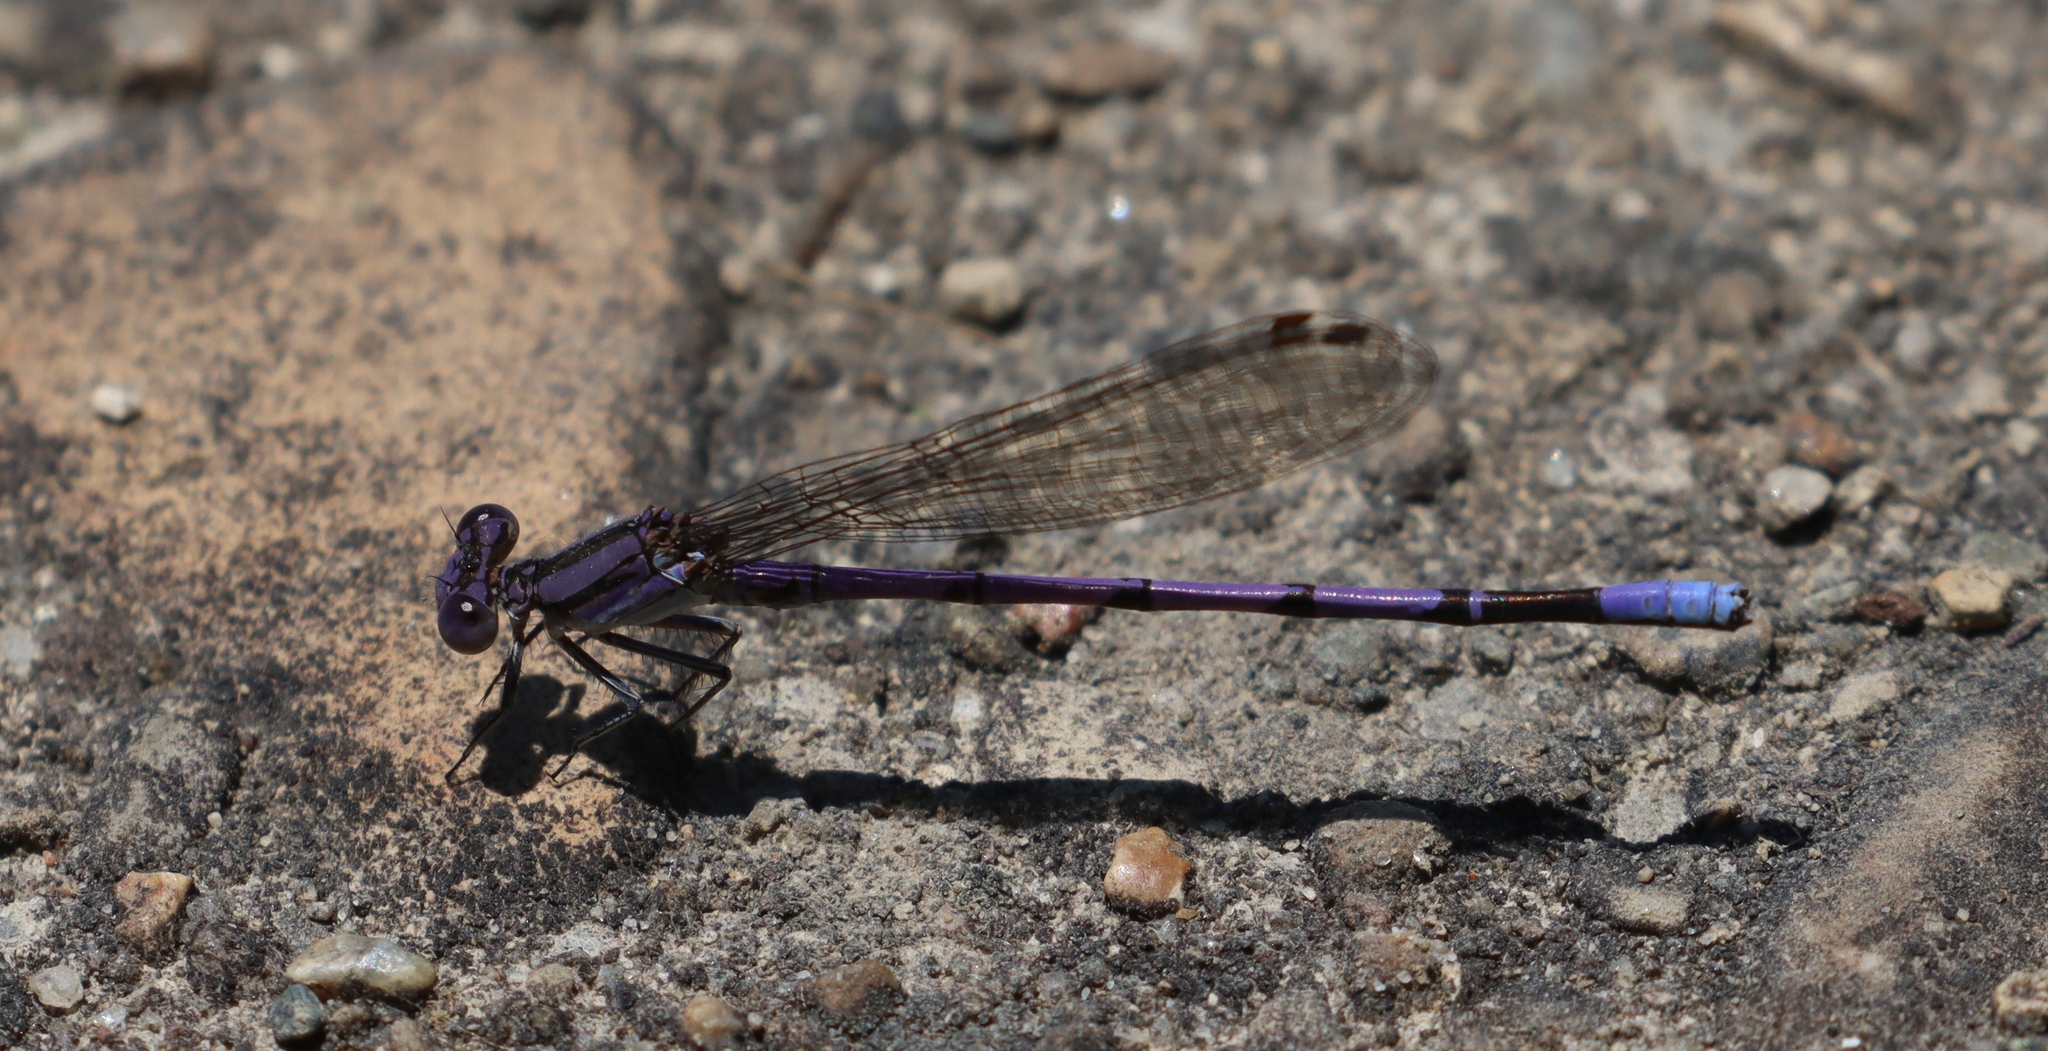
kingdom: Animalia
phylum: Arthropoda
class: Insecta
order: Odonata
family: Coenagrionidae
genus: Argia
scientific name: Argia fumipennis
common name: Variable dancer
